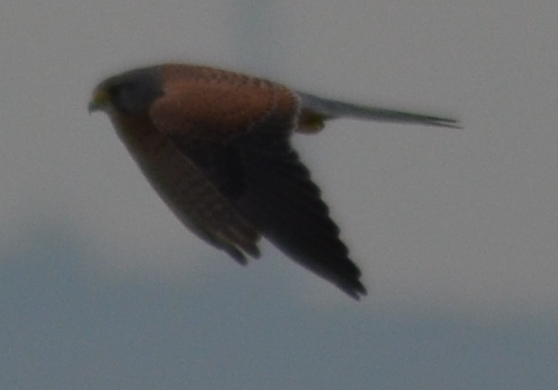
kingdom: Animalia
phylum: Chordata
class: Aves
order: Falconiformes
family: Falconidae
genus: Falco
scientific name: Falco tinnunculus
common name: Common kestrel
